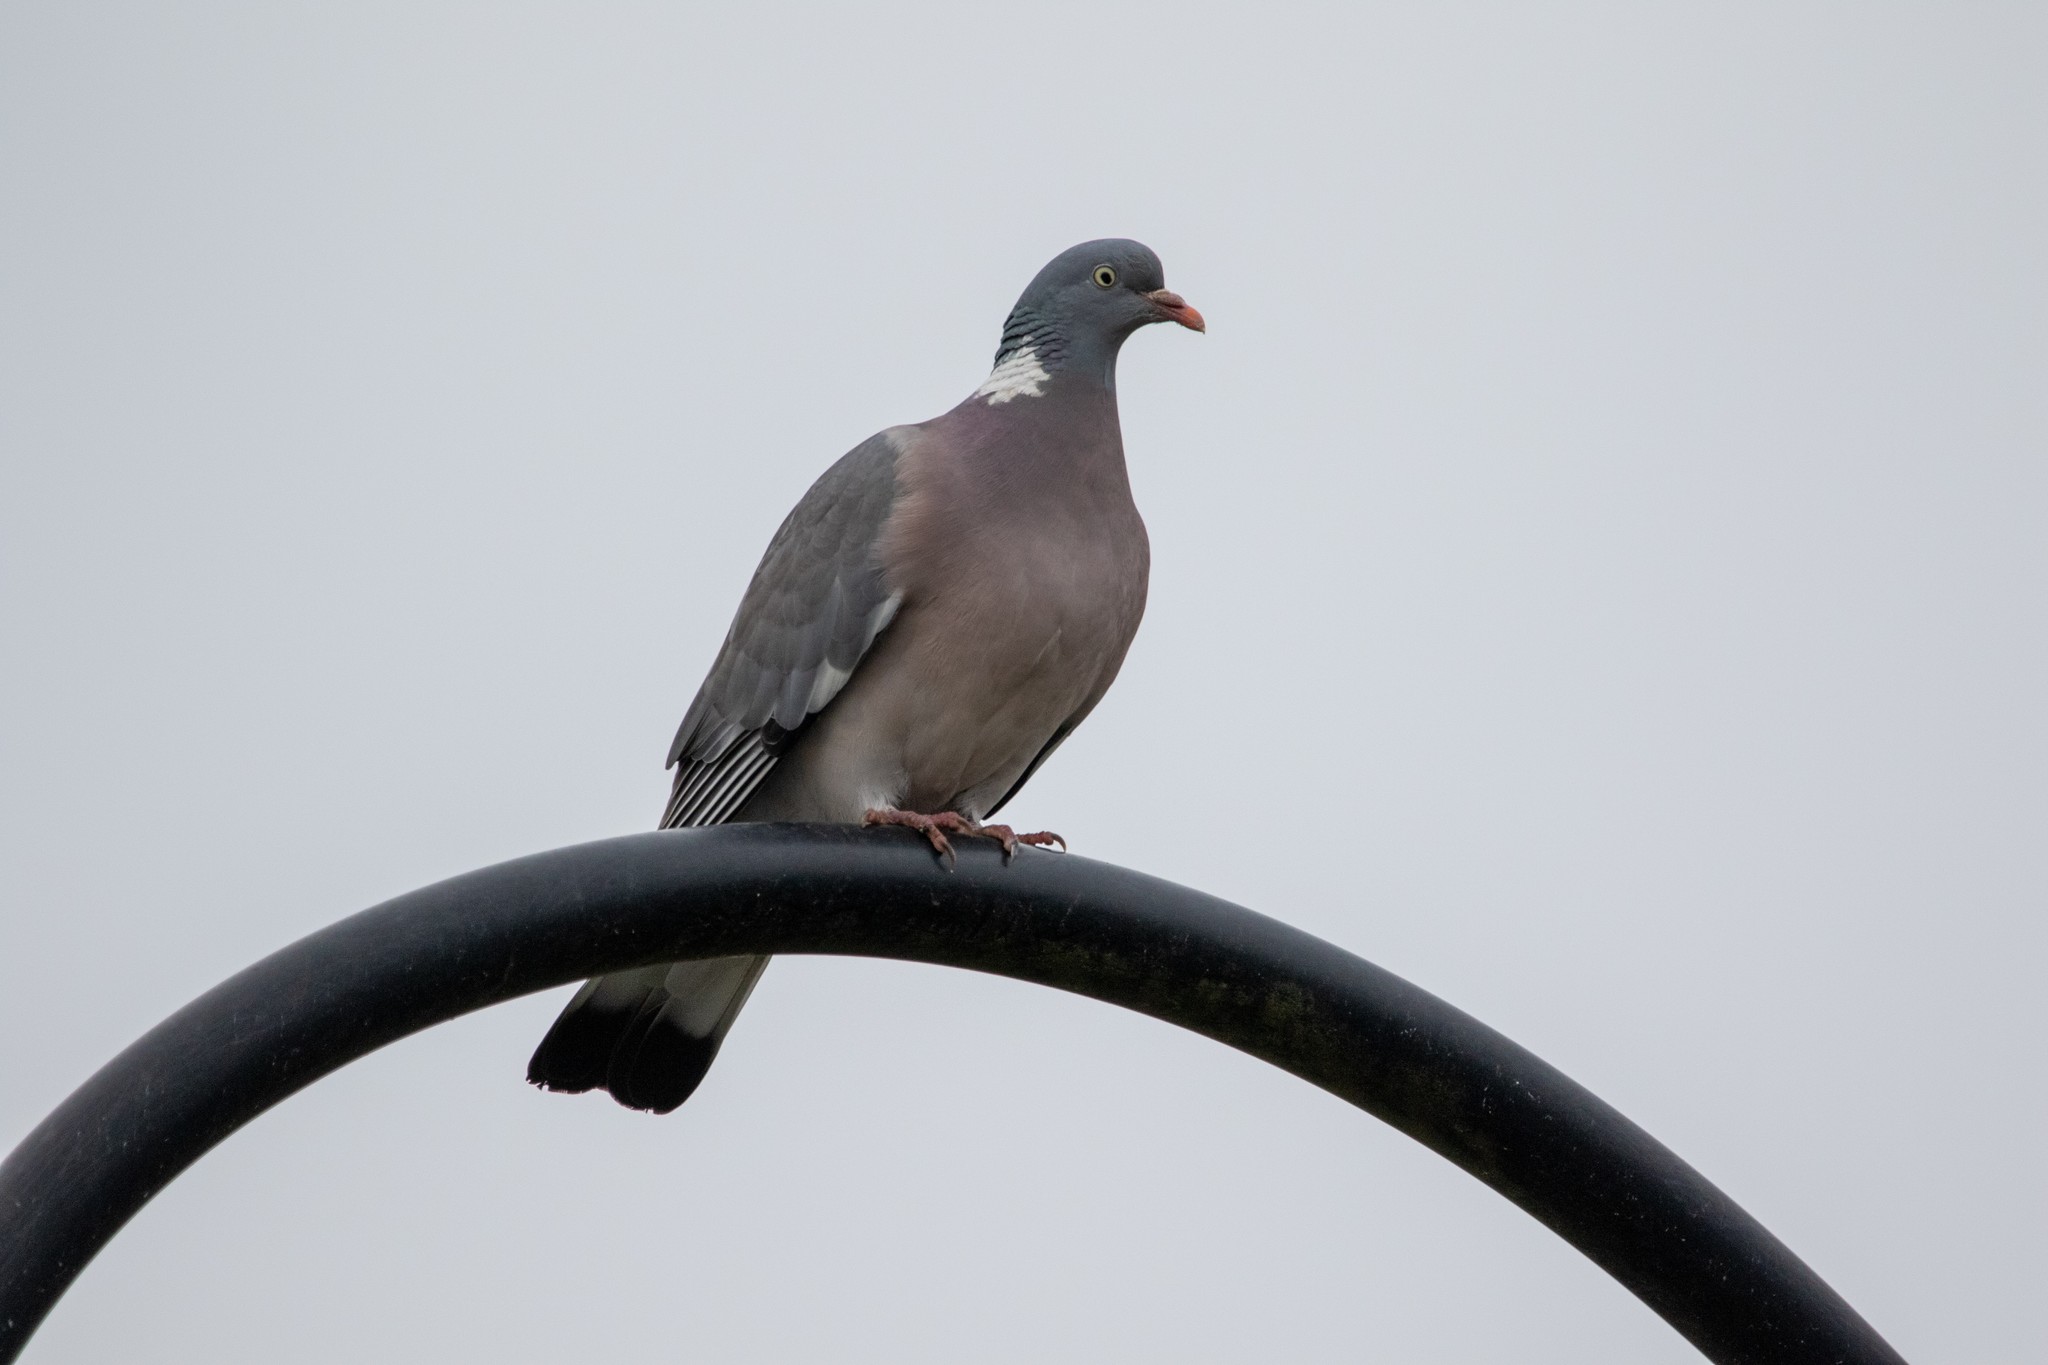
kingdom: Animalia
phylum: Chordata
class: Aves
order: Columbiformes
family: Columbidae
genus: Columba
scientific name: Columba palumbus
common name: Common wood pigeon
